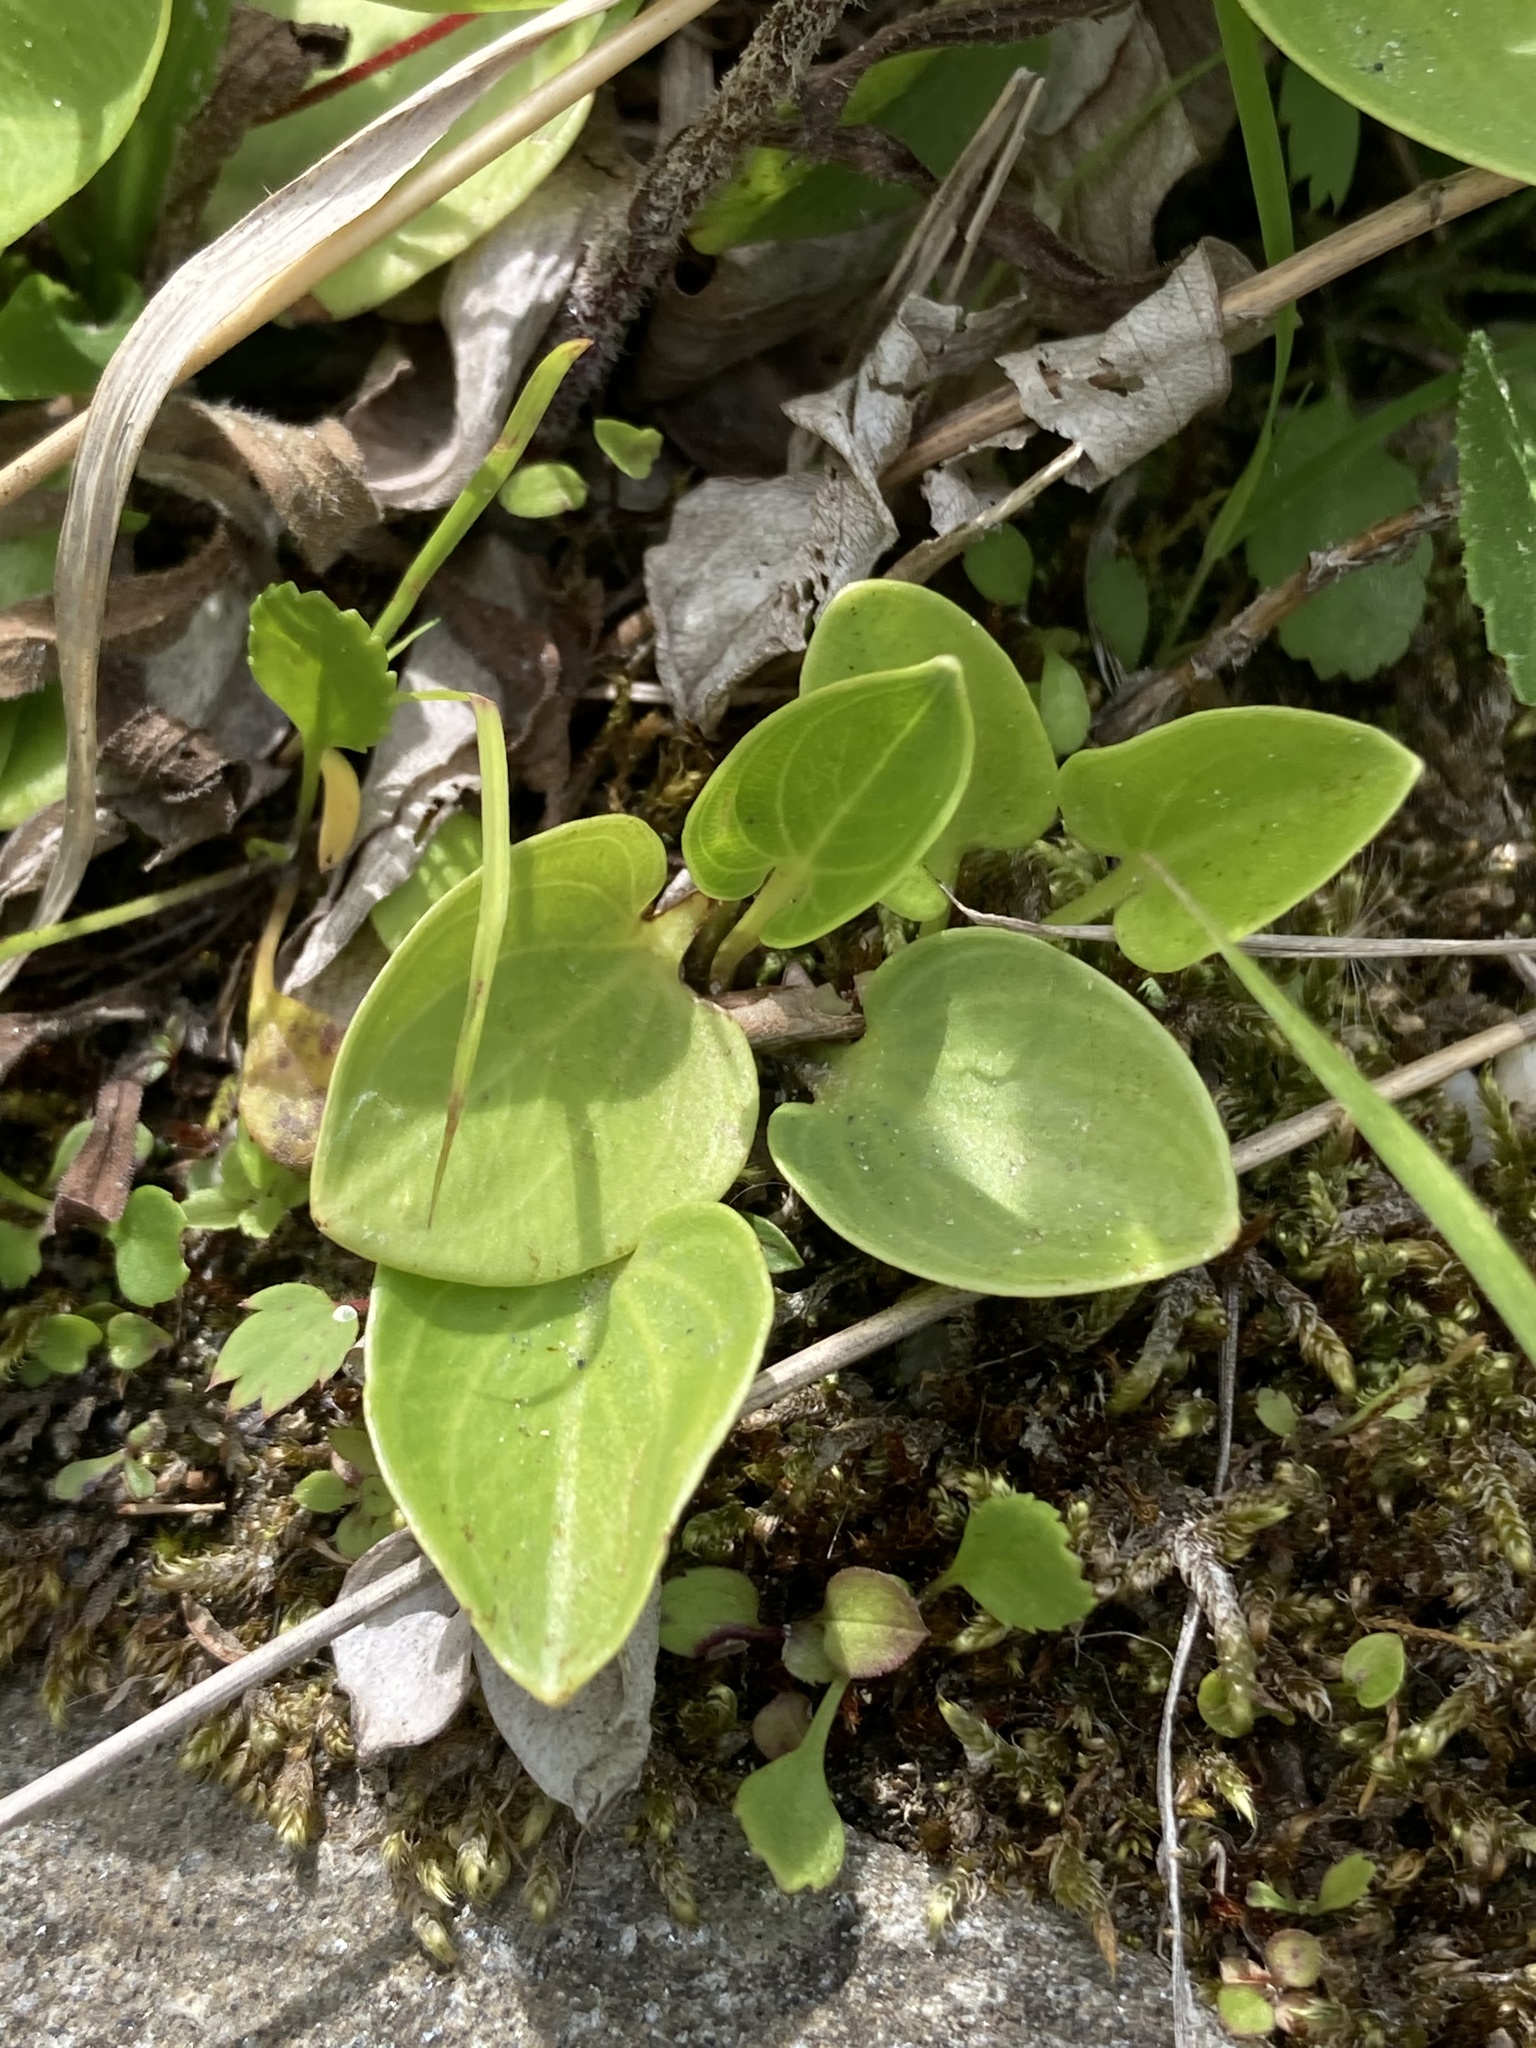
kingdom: Plantae
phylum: Tracheophyta
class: Magnoliopsida
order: Celastrales
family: Parnassiaceae
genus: Parnassia
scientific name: Parnassia glauca
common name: American grass-of-parnassus
